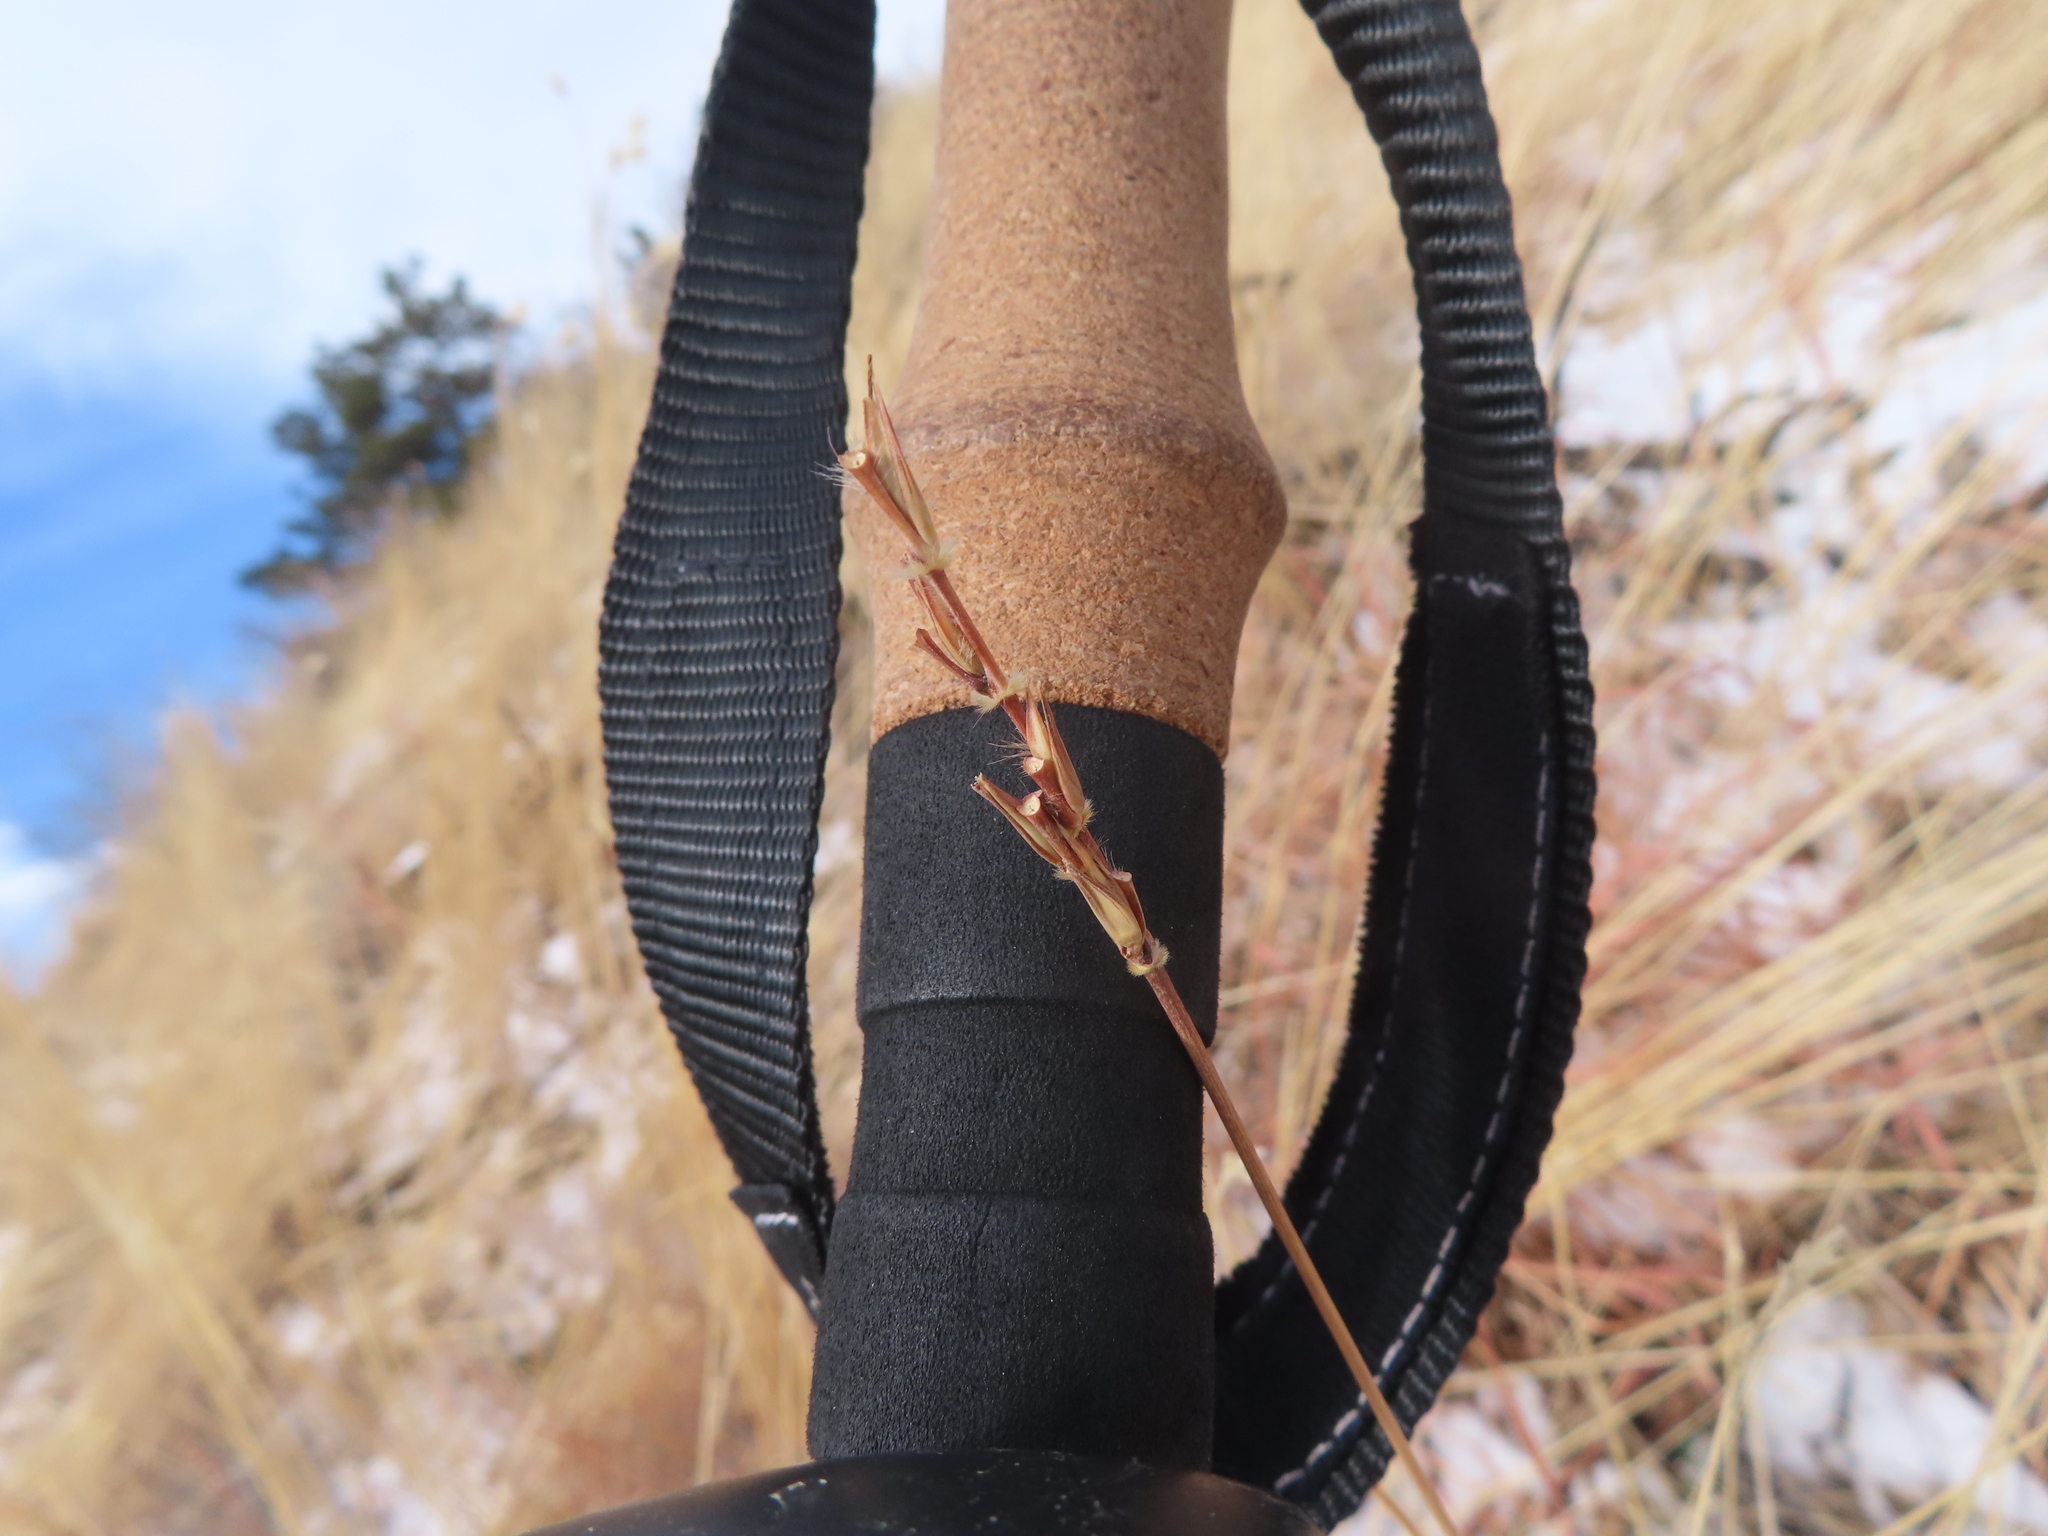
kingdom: Plantae
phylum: Tracheophyta
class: Liliopsida
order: Poales
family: Poaceae
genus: Schizachyrium
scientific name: Schizachyrium scoparium
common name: Little bluestem
